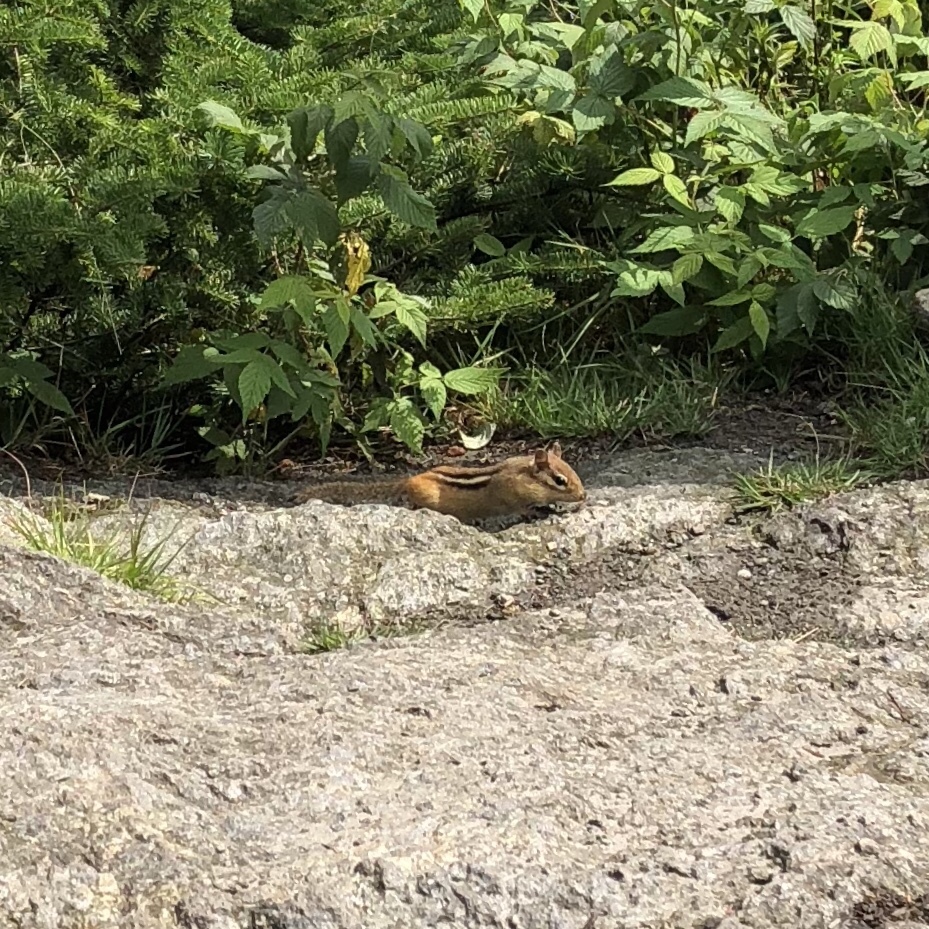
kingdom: Animalia
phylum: Chordata
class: Mammalia
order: Rodentia
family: Sciuridae
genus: Tamias
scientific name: Tamias striatus
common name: Eastern chipmunk
